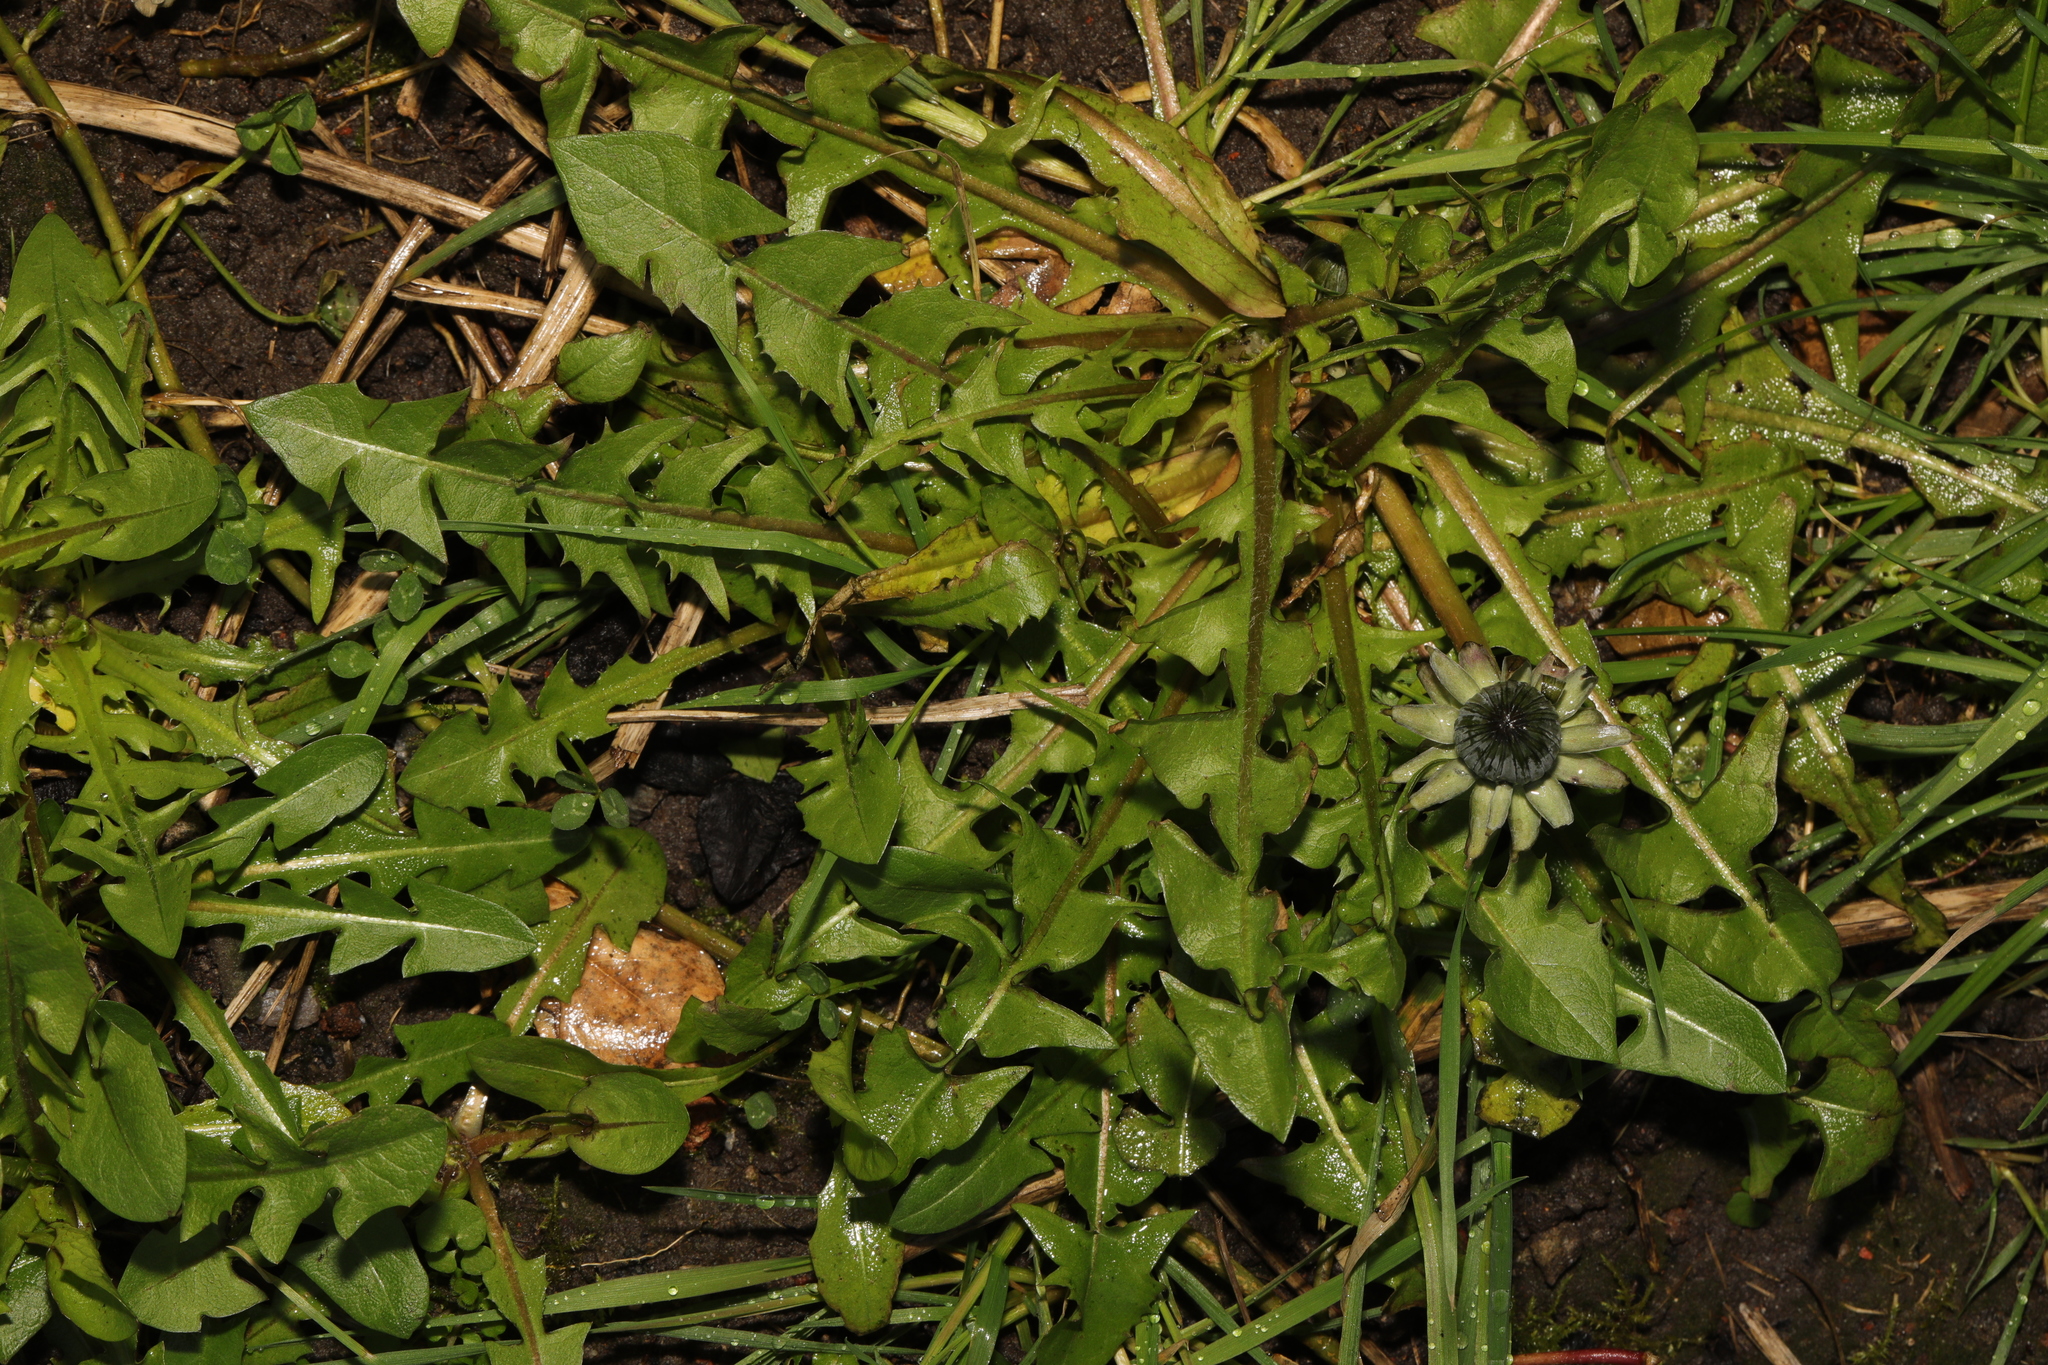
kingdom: Plantae
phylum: Tracheophyta
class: Magnoliopsida
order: Asterales
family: Asteraceae
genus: Taraxacum
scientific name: Taraxacum officinale
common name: Common dandelion
